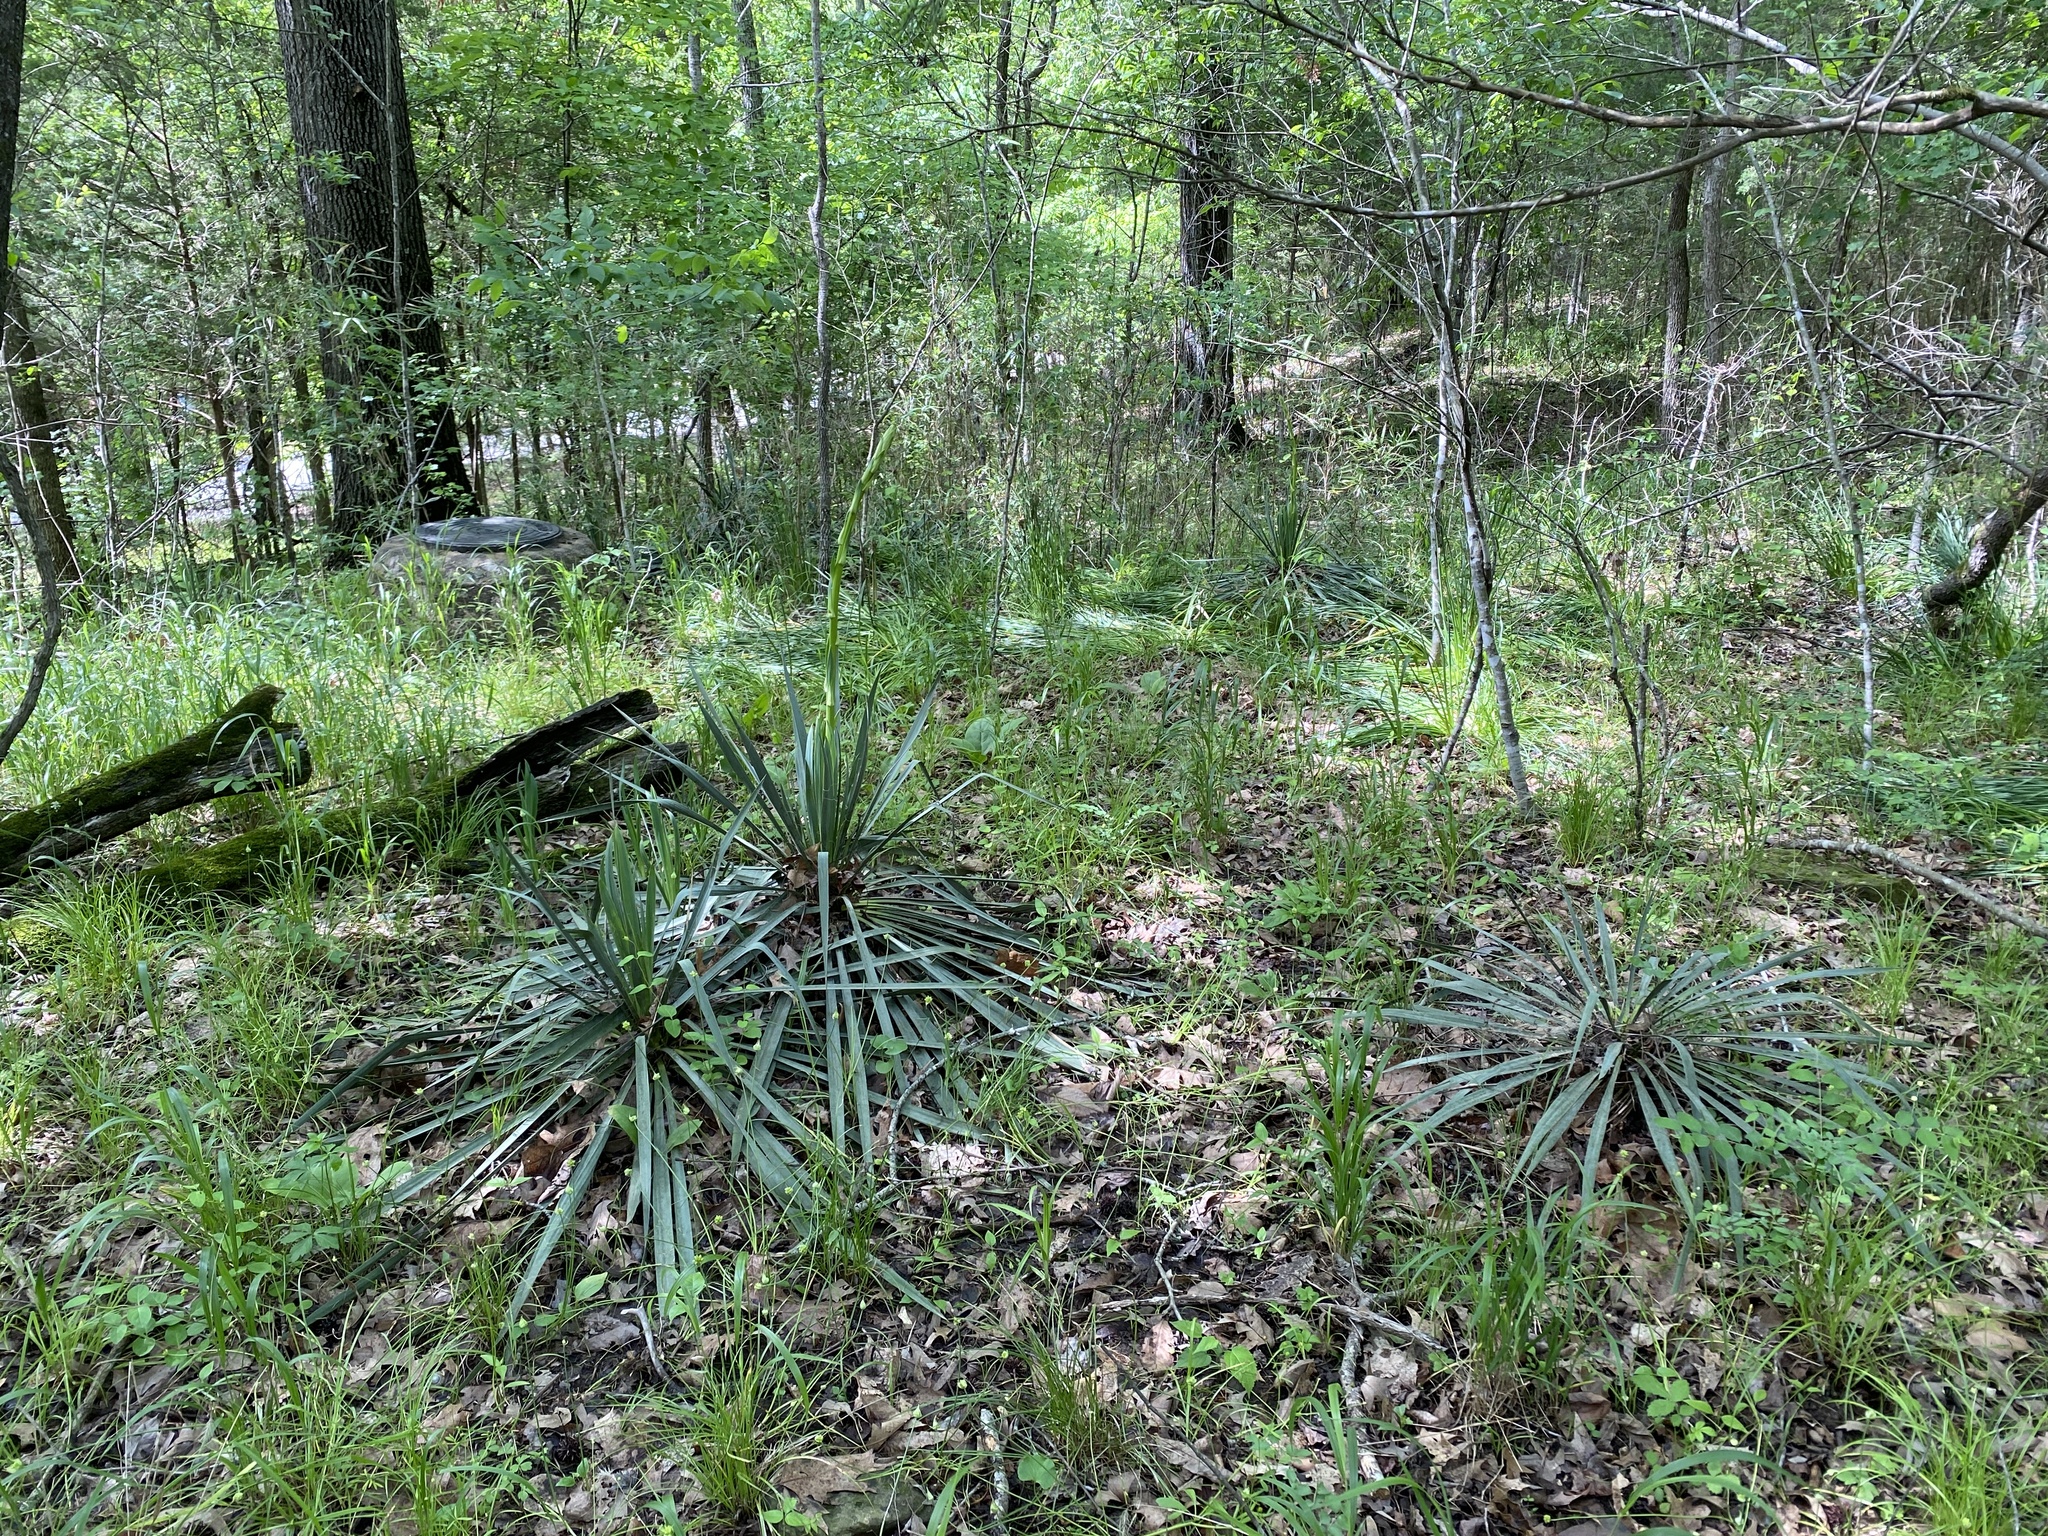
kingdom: Plantae
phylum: Tracheophyta
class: Liliopsida
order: Asparagales
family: Asparagaceae
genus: Yucca
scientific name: Yucca arkansana
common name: Arkansas yucca
